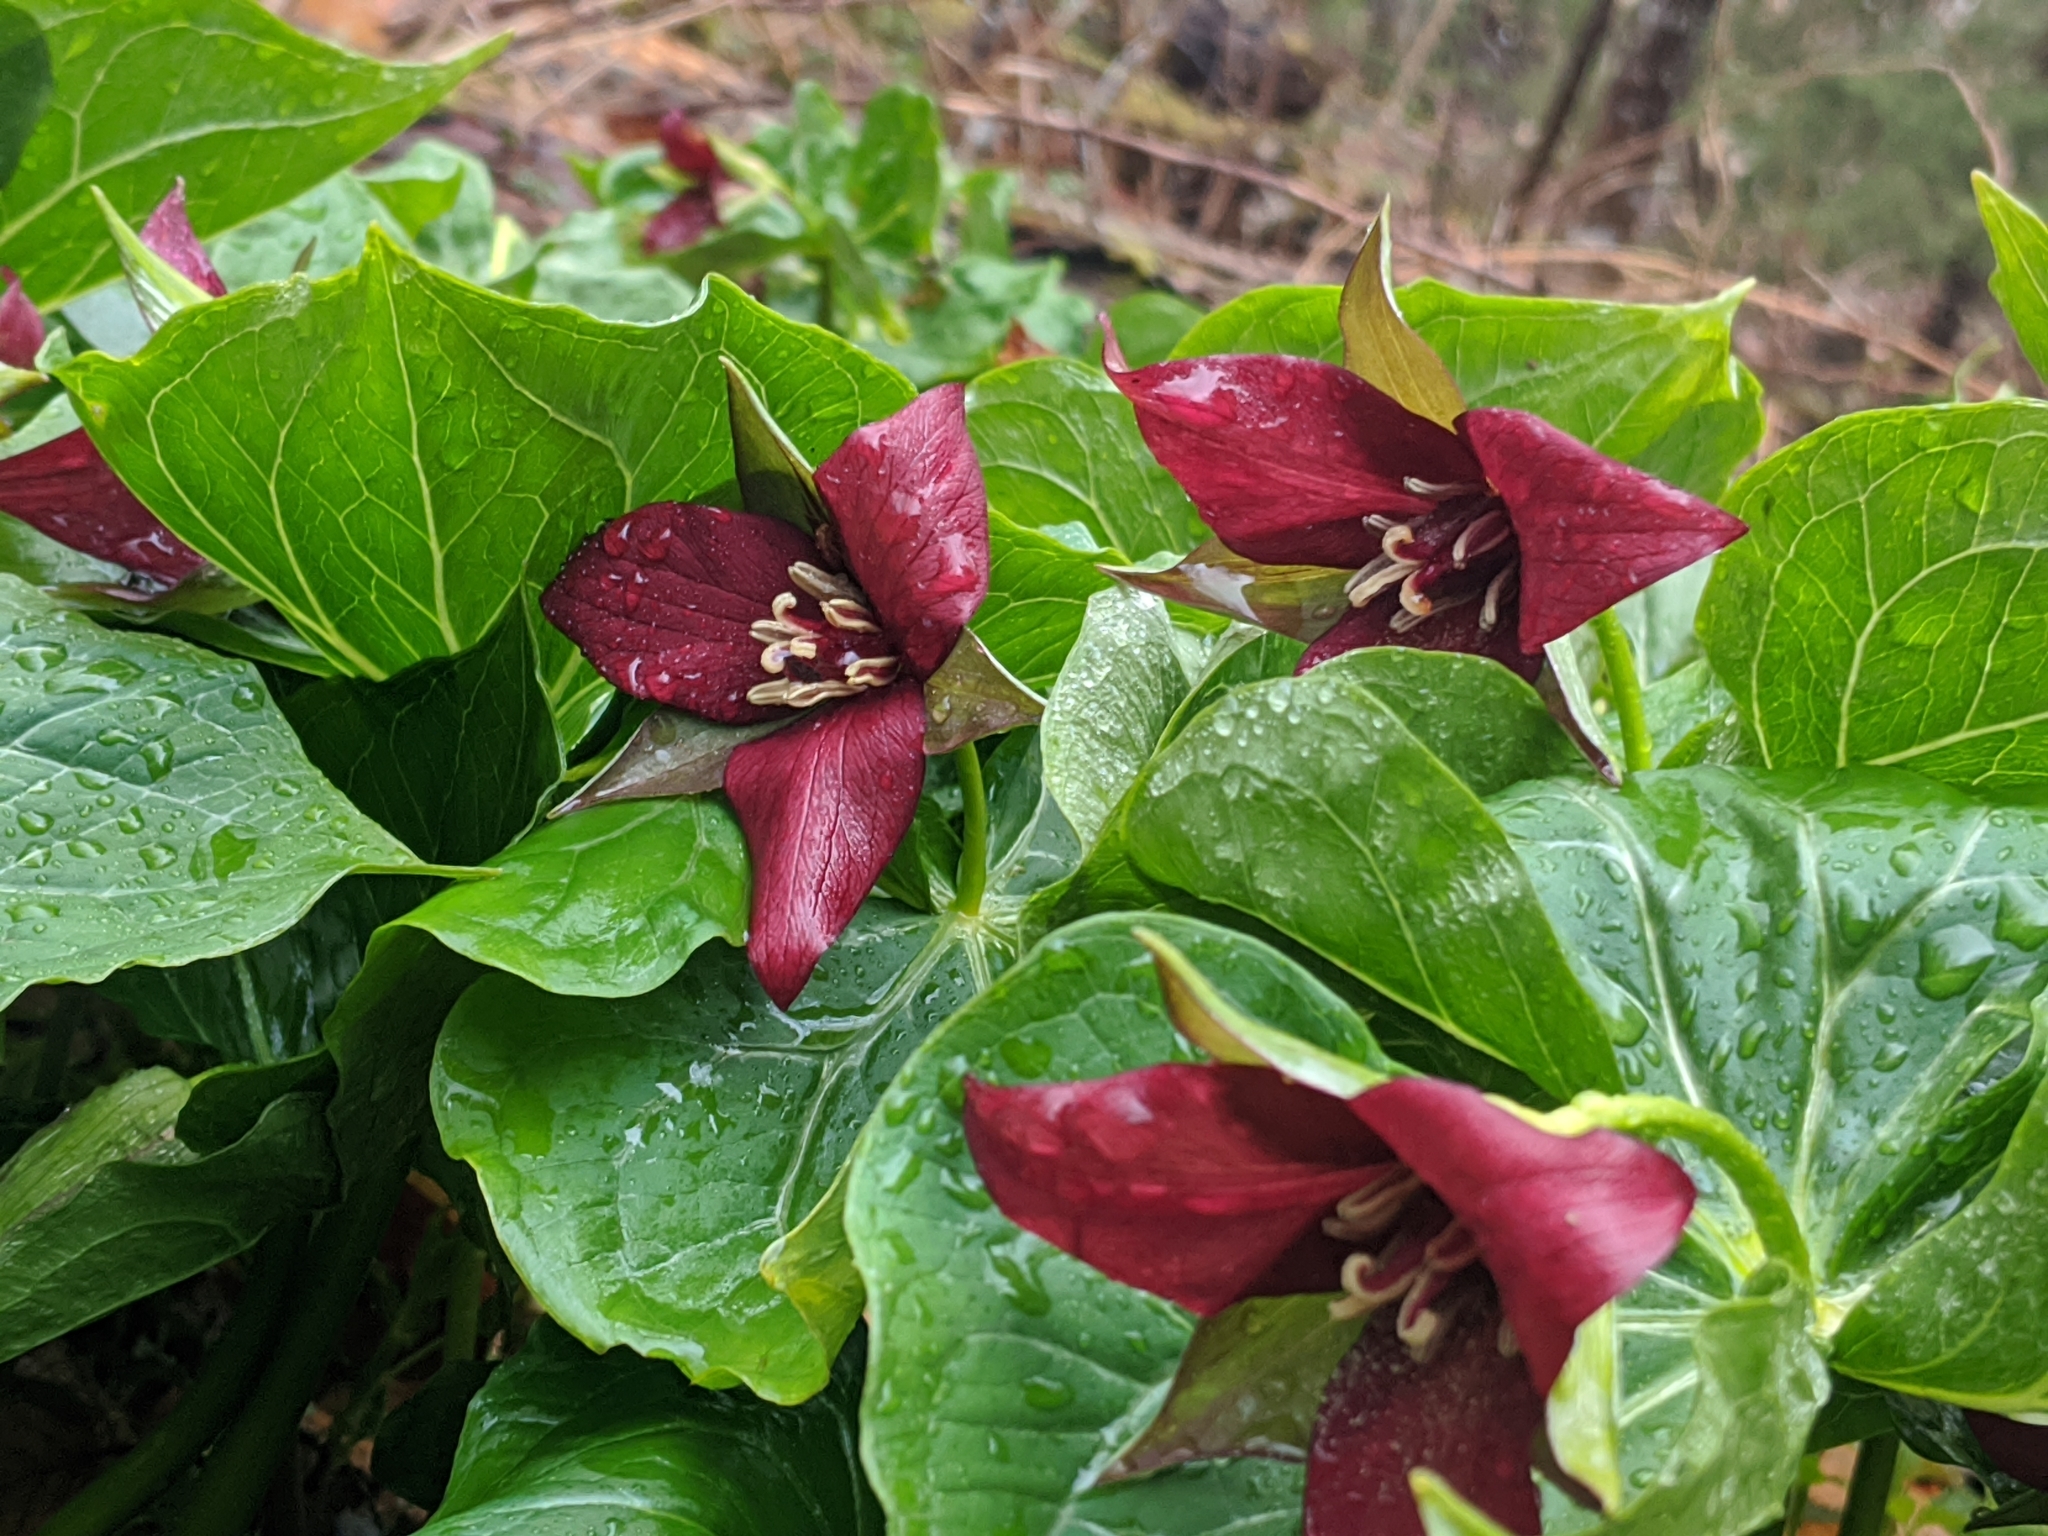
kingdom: Plantae
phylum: Tracheophyta
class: Liliopsida
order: Liliales
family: Melanthiaceae
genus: Trillium
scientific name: Trillium erectum
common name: Purple trillium
